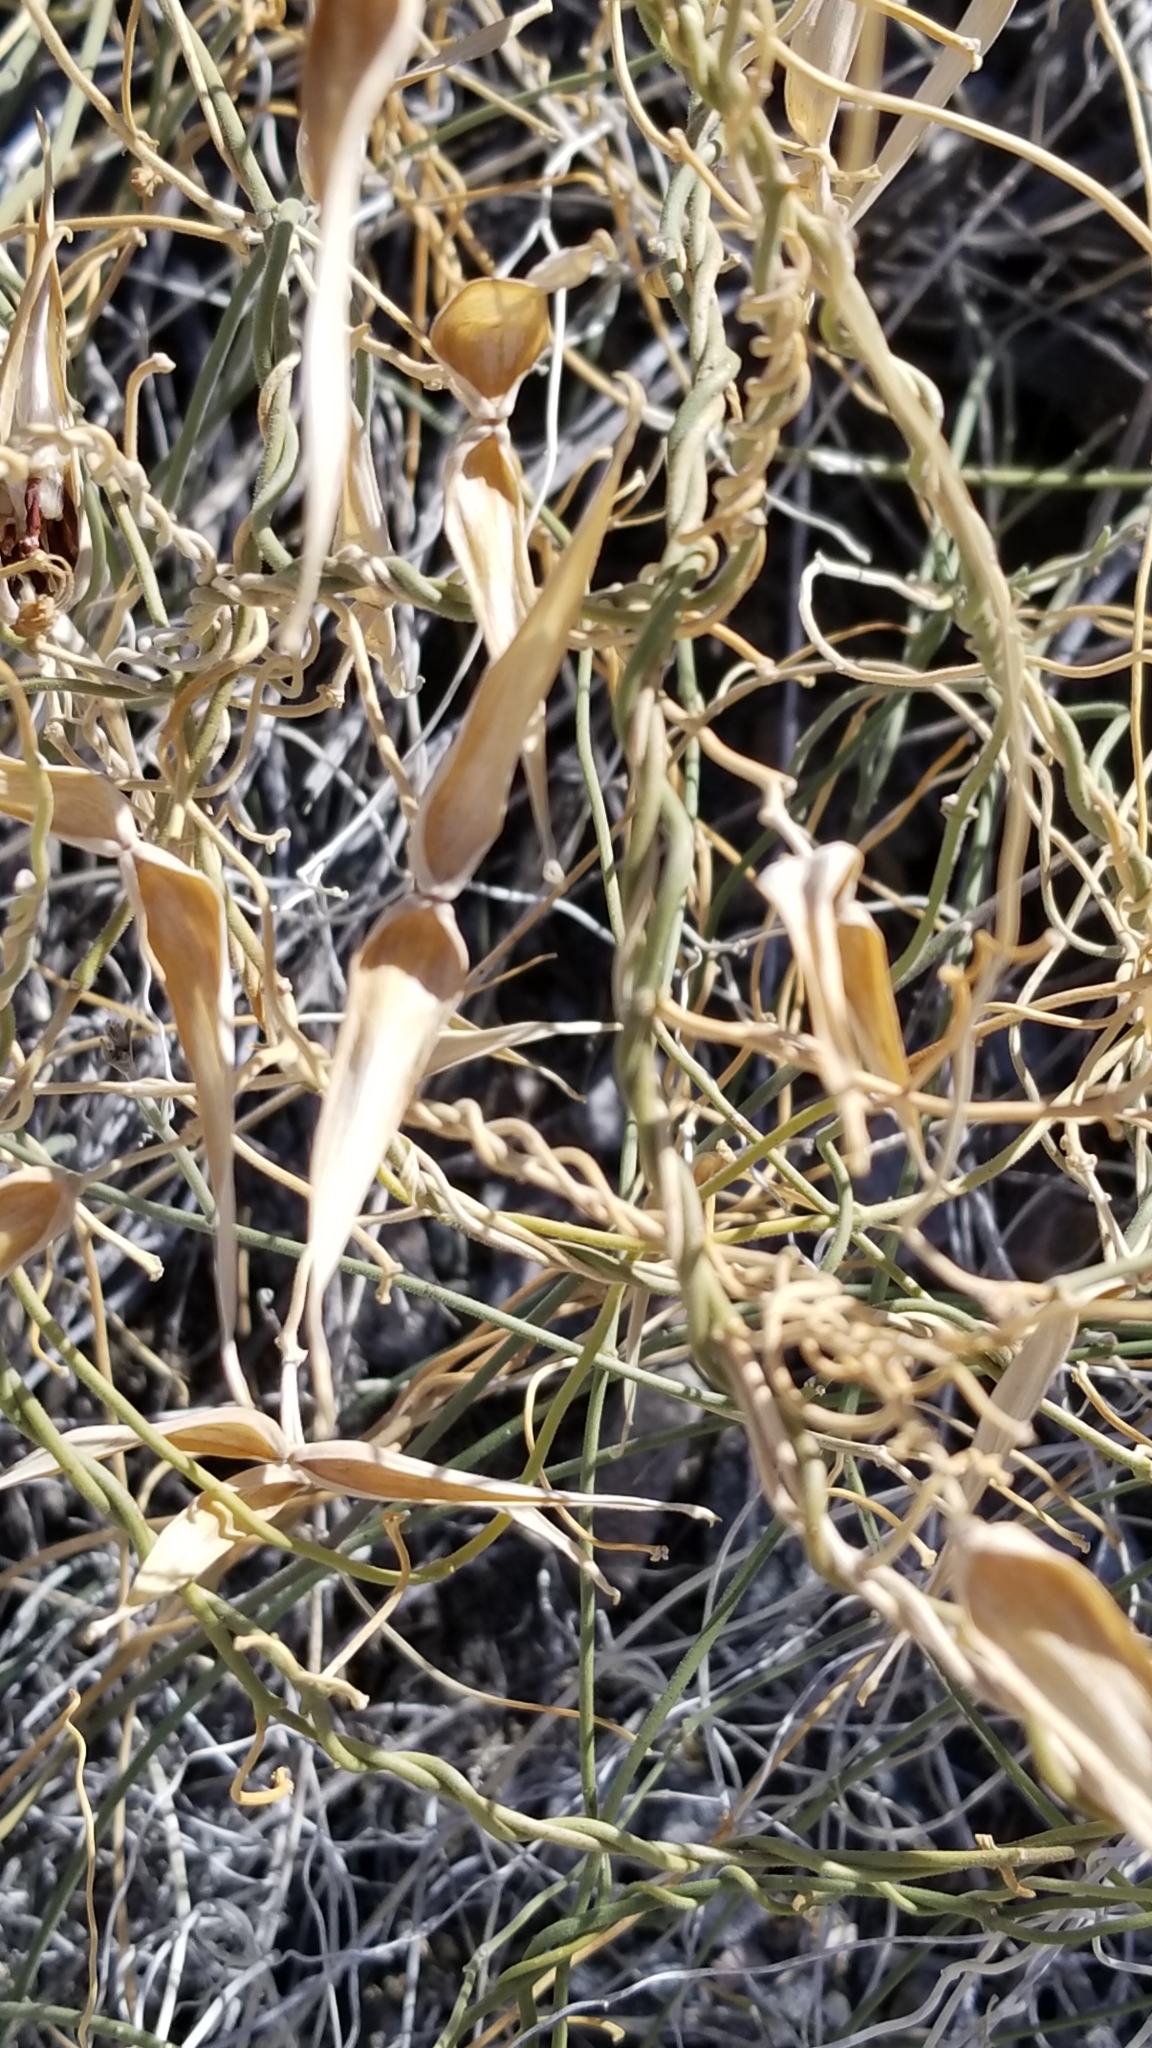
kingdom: Plantae
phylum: Tracheophyta
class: Magnoliopsida
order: Gentianales
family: Apocynaceae
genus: Funastrum
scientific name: Funastrum hirtellum
